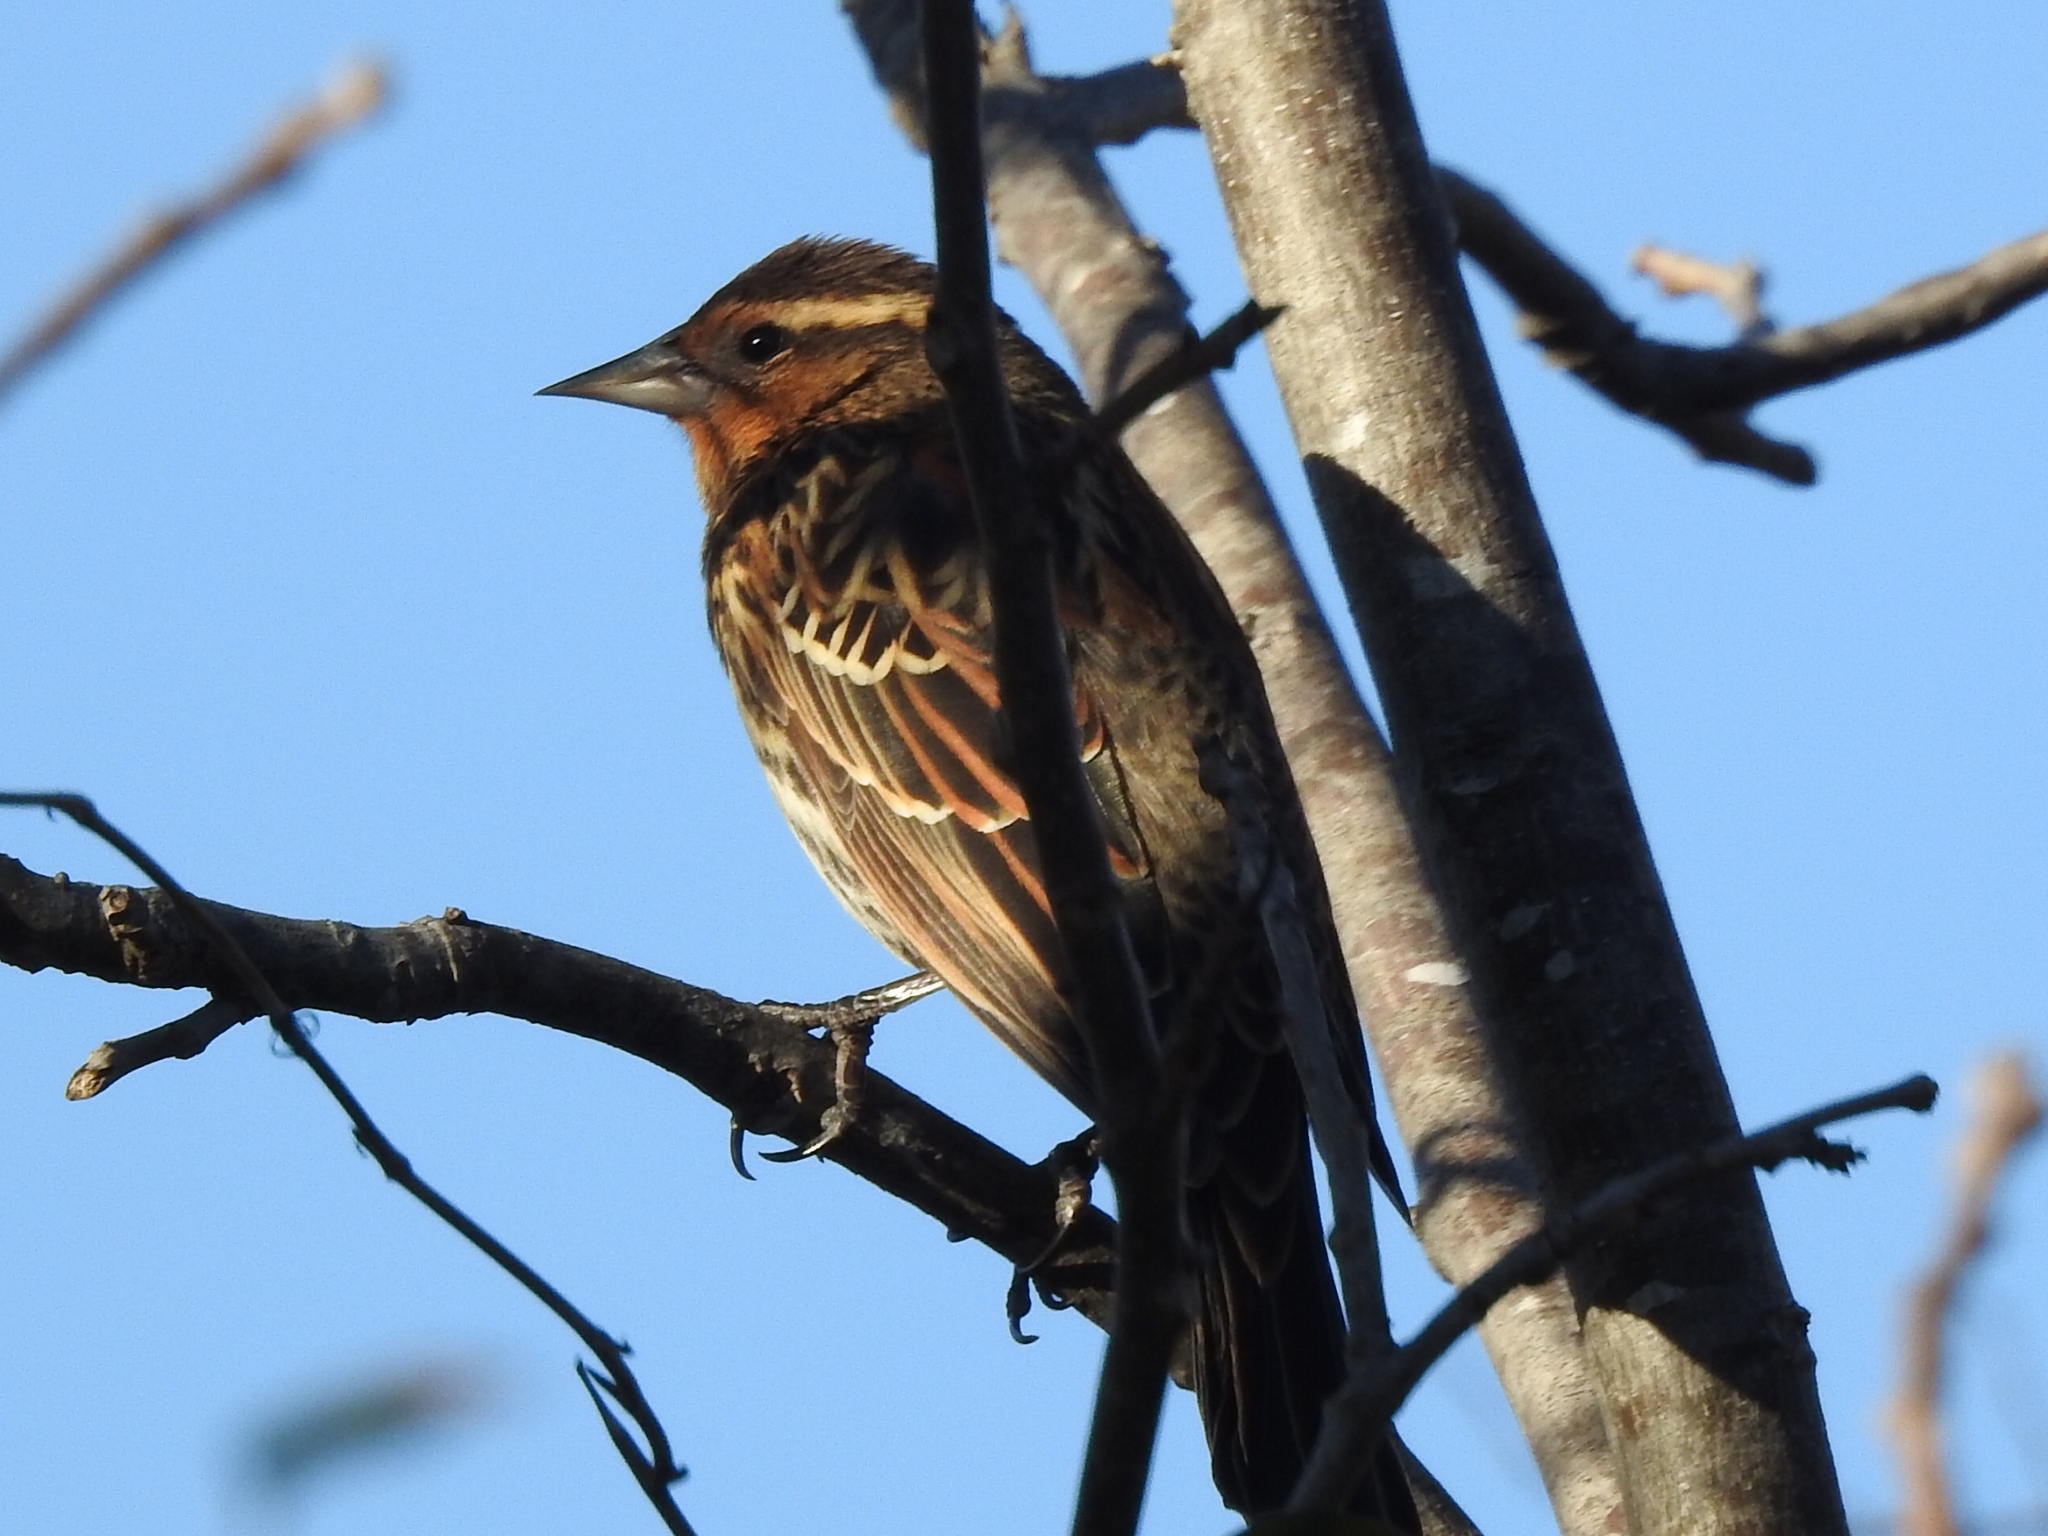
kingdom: Animalia
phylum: Chordata
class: Aves
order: Passeriformes
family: Icteridae
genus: Agelaius
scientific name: Agelaius phoeniceus
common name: Red-winged blackbird
